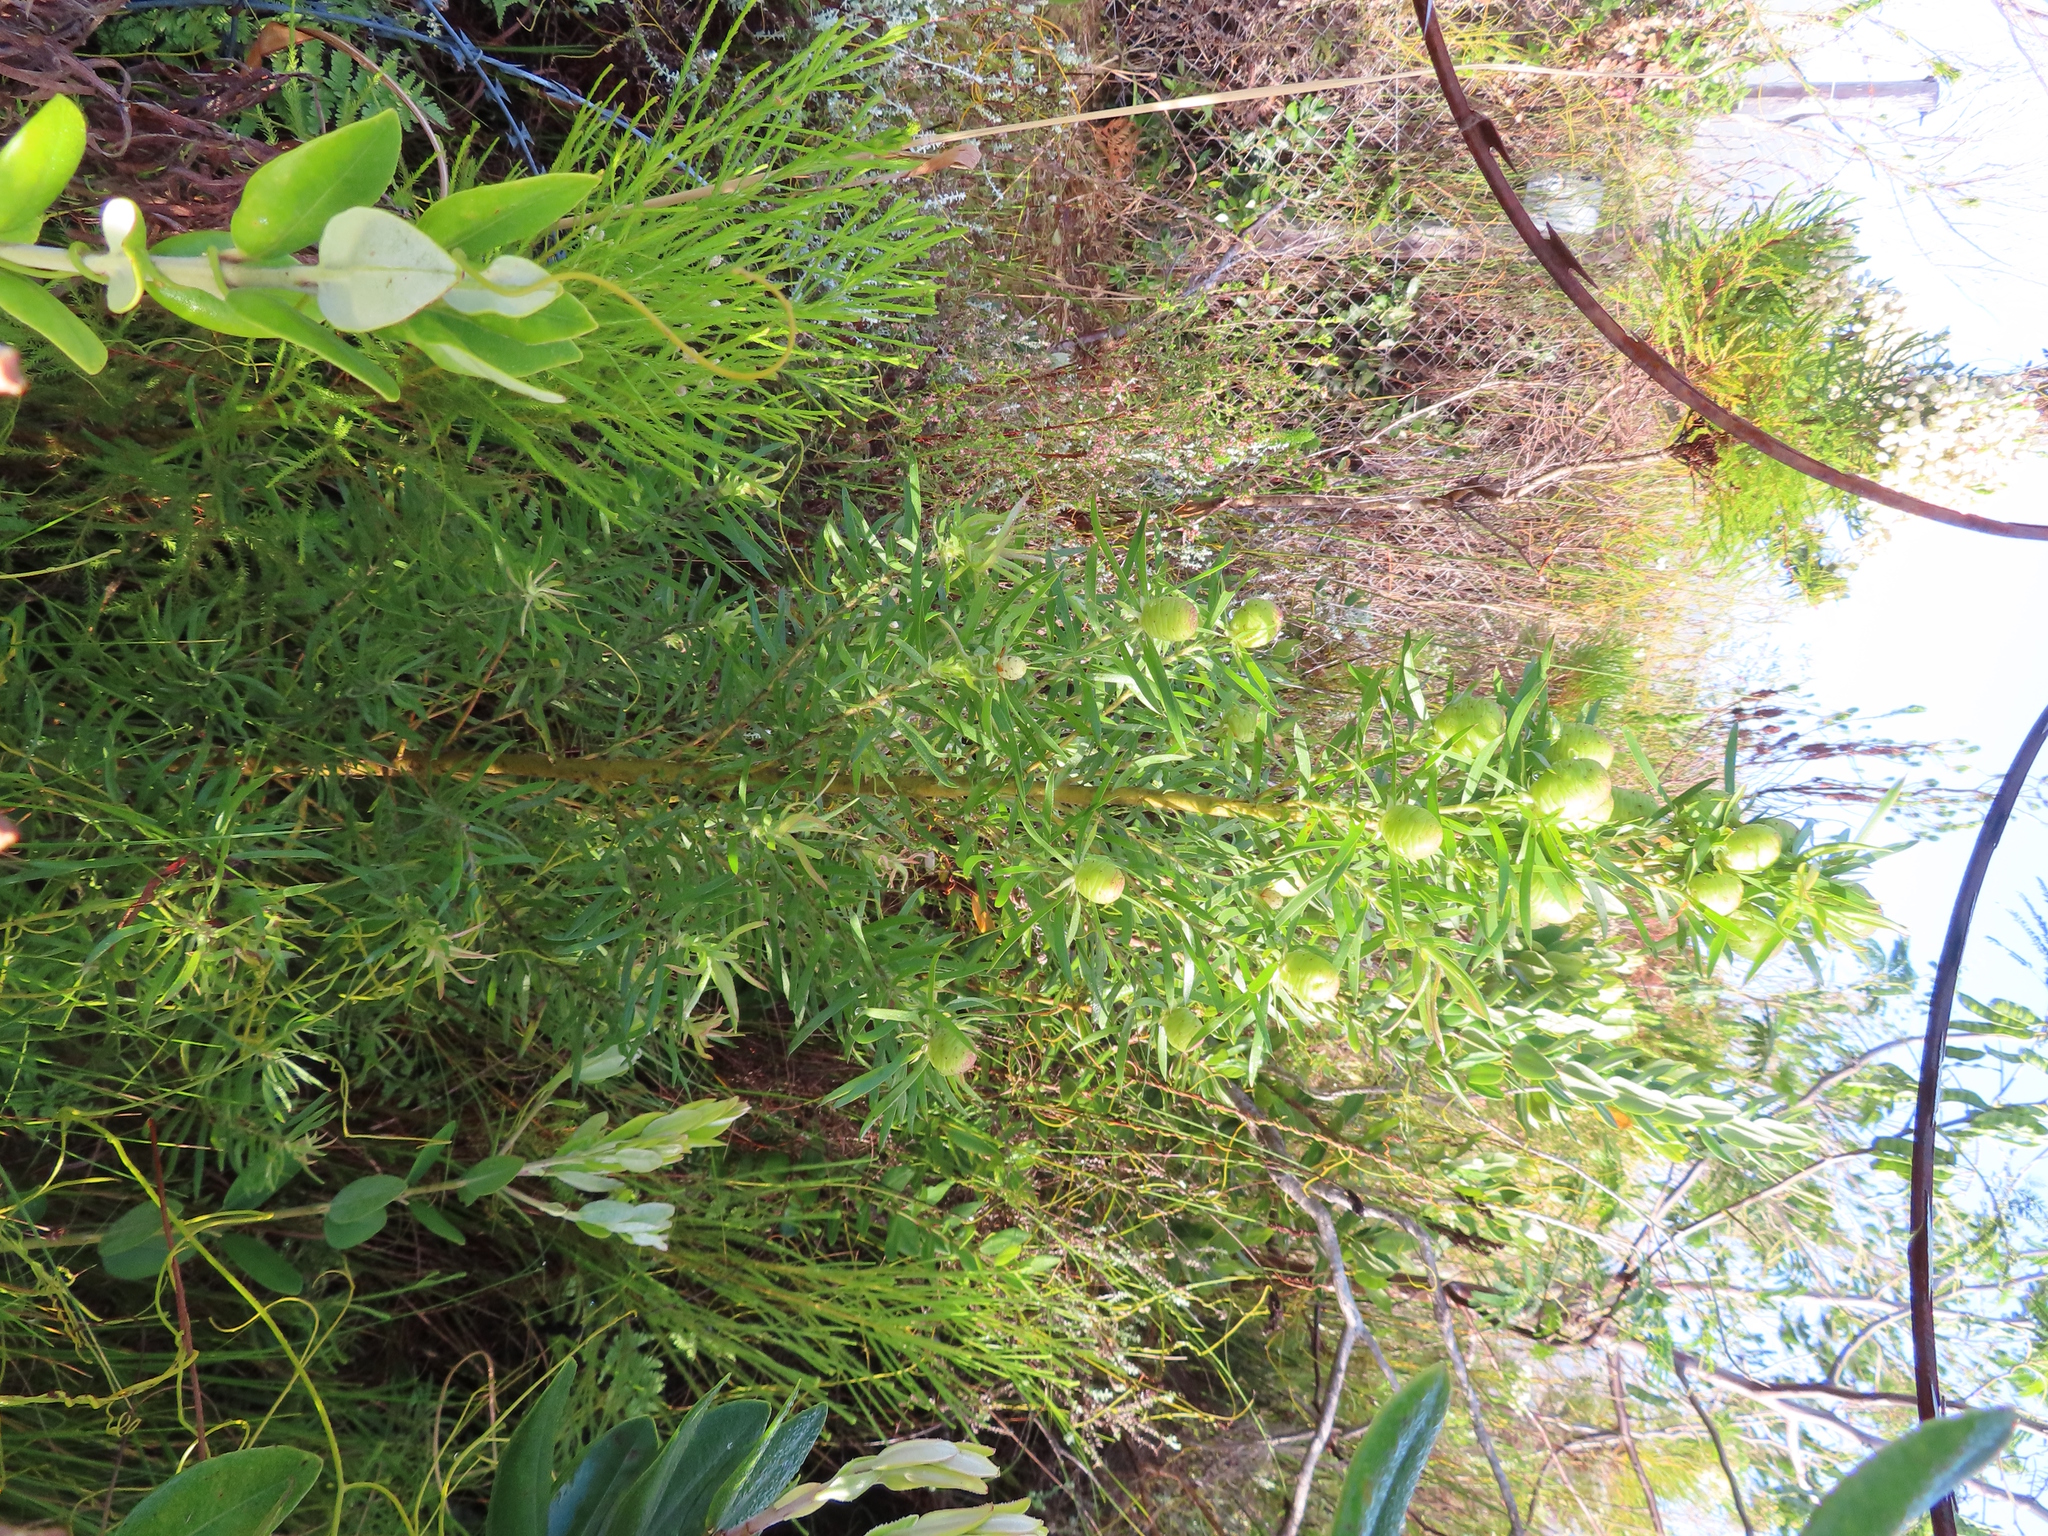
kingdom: Plantae
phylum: Tracheophyta
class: Magnoliopsida
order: Proteales
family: Proteaceae
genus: Leucadendron
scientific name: Leucadendron salicifolium
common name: Common stream conebush
